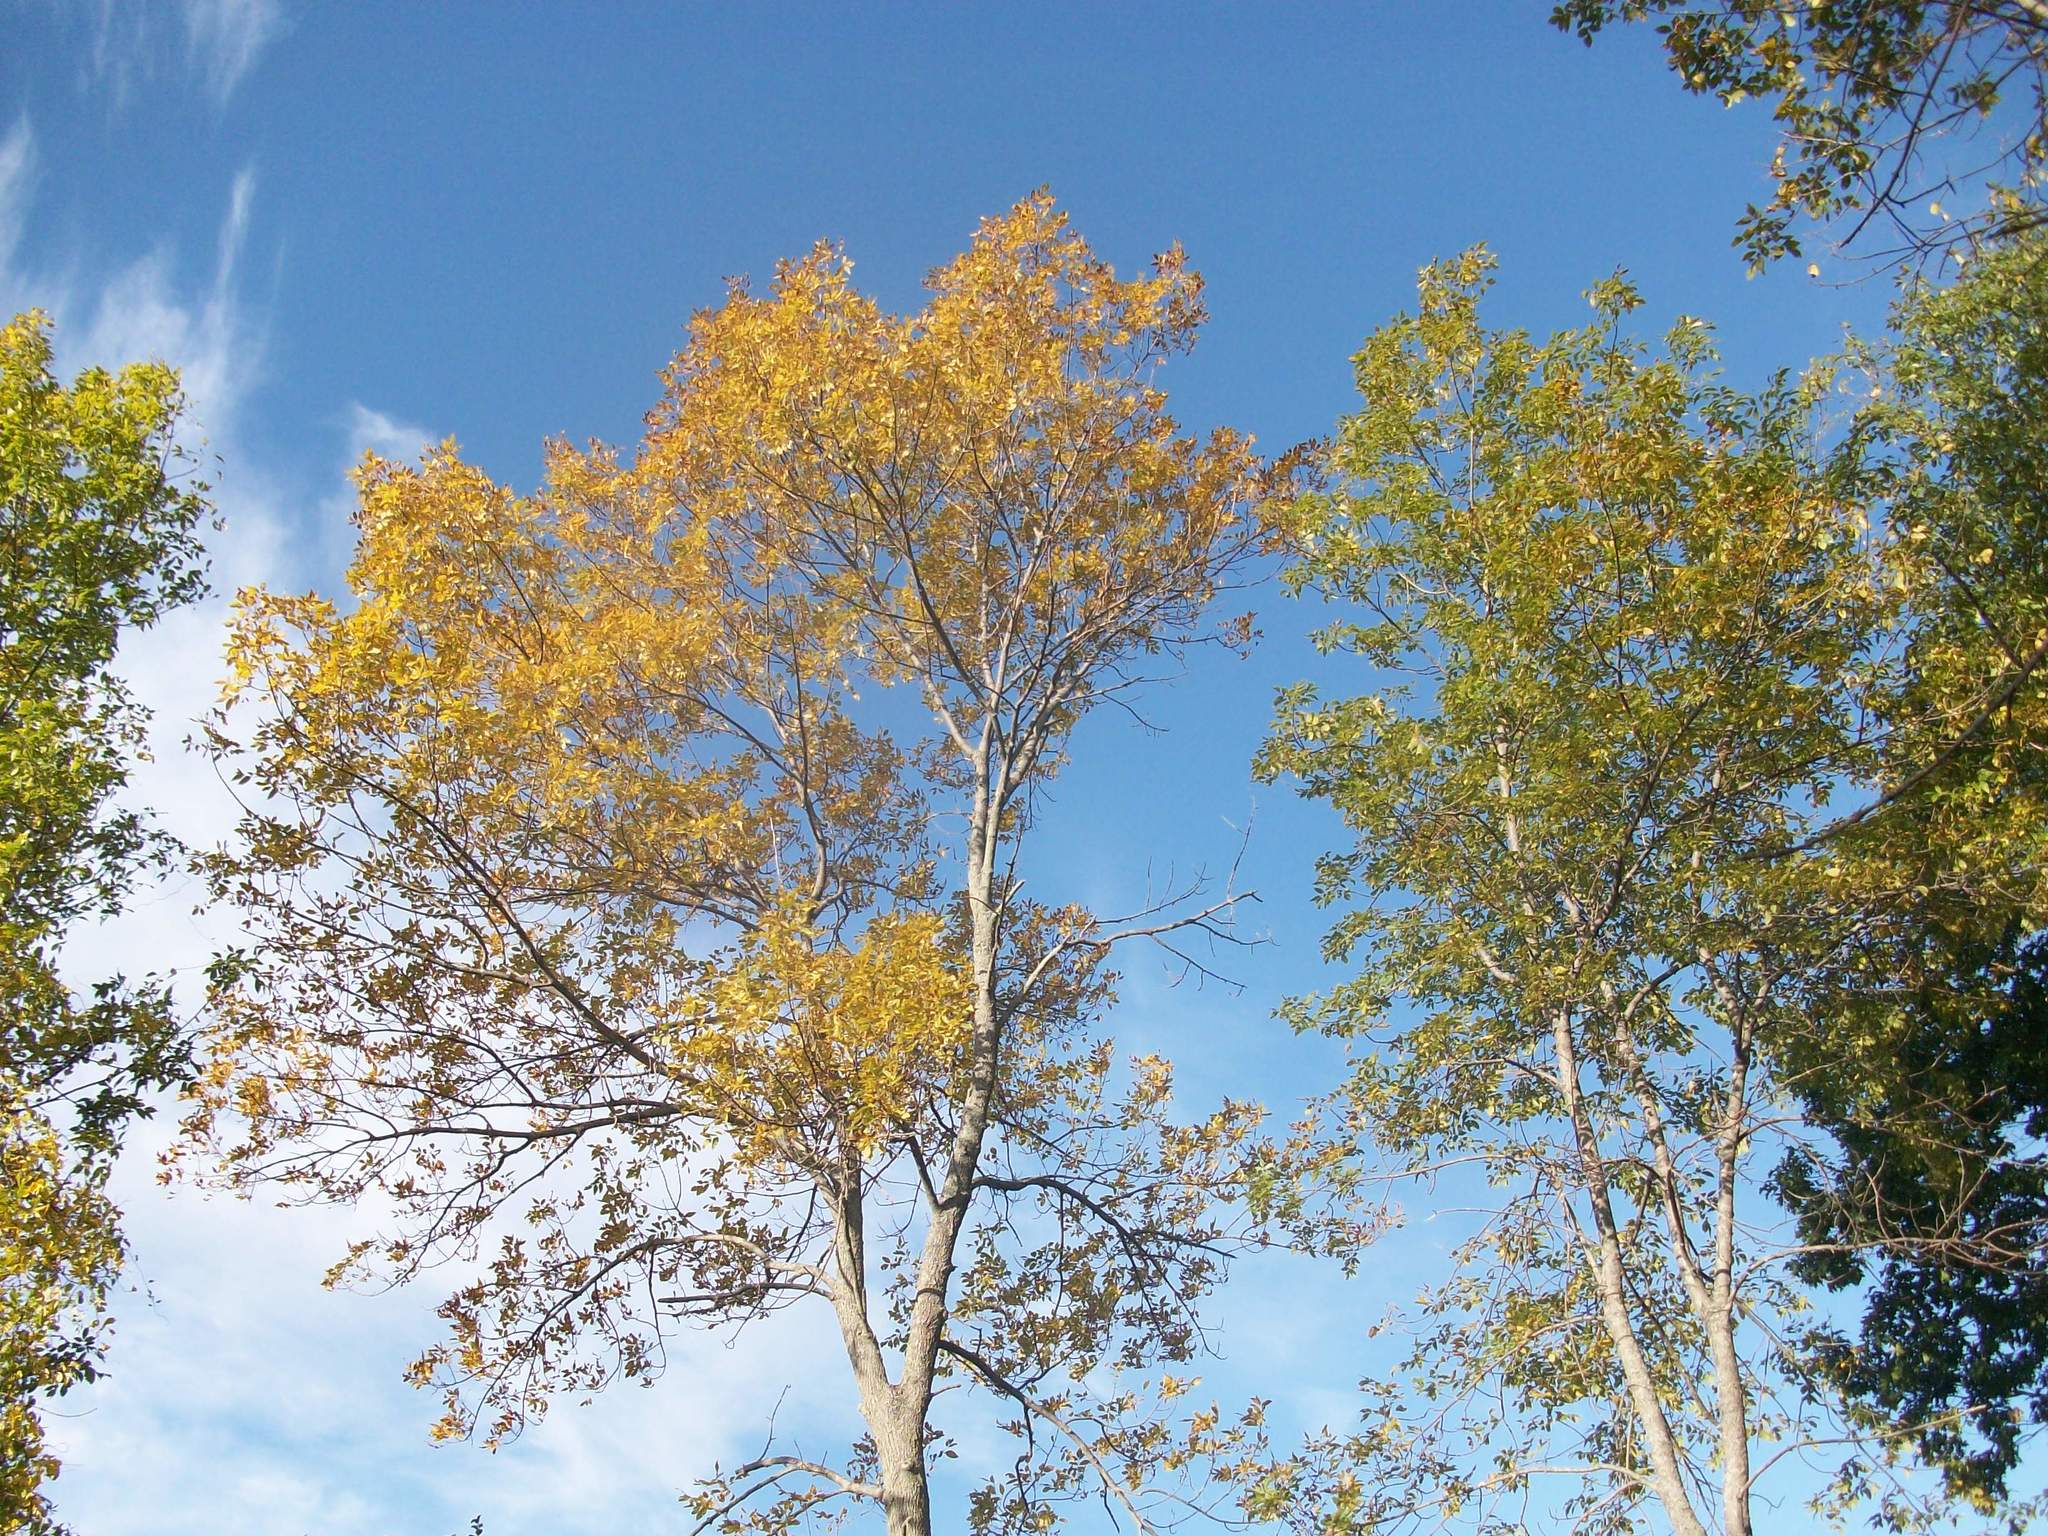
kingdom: Plantae
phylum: Tracheophyta
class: Magnoliopsida
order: Lamiales
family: Oleaceae
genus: Fraxinus
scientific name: Fraxinus americana
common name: White ash
